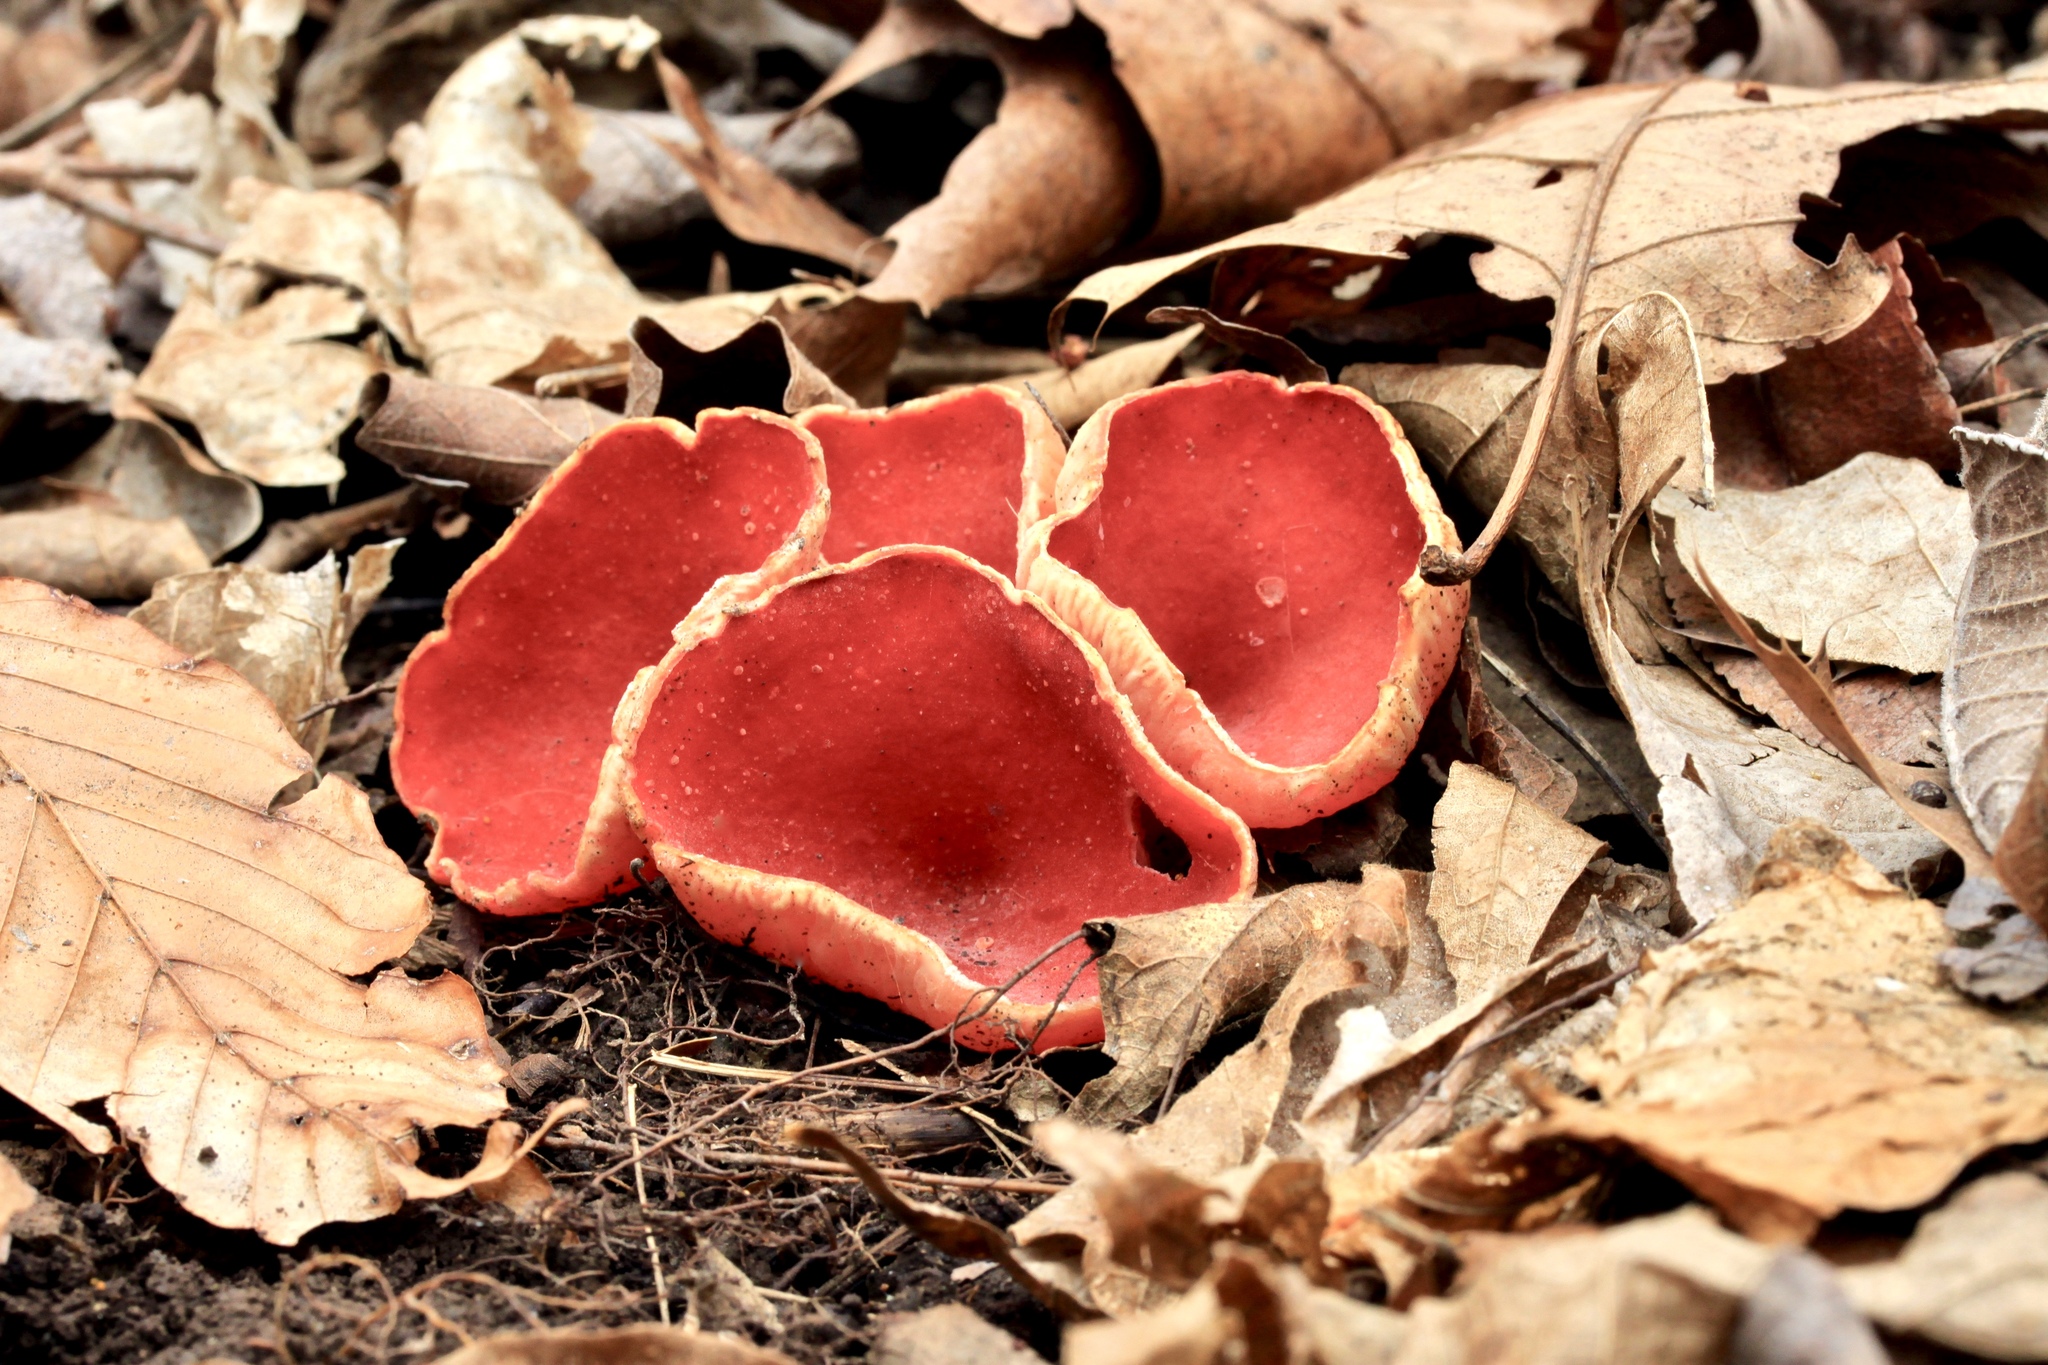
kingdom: Fungi
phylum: Ascomycota
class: Pezizomycetes
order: Pezizales
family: Sarcoscyphaceae
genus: Sarcoscypha
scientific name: Sarcoscypha austriaca
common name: Scarlet elfcup
